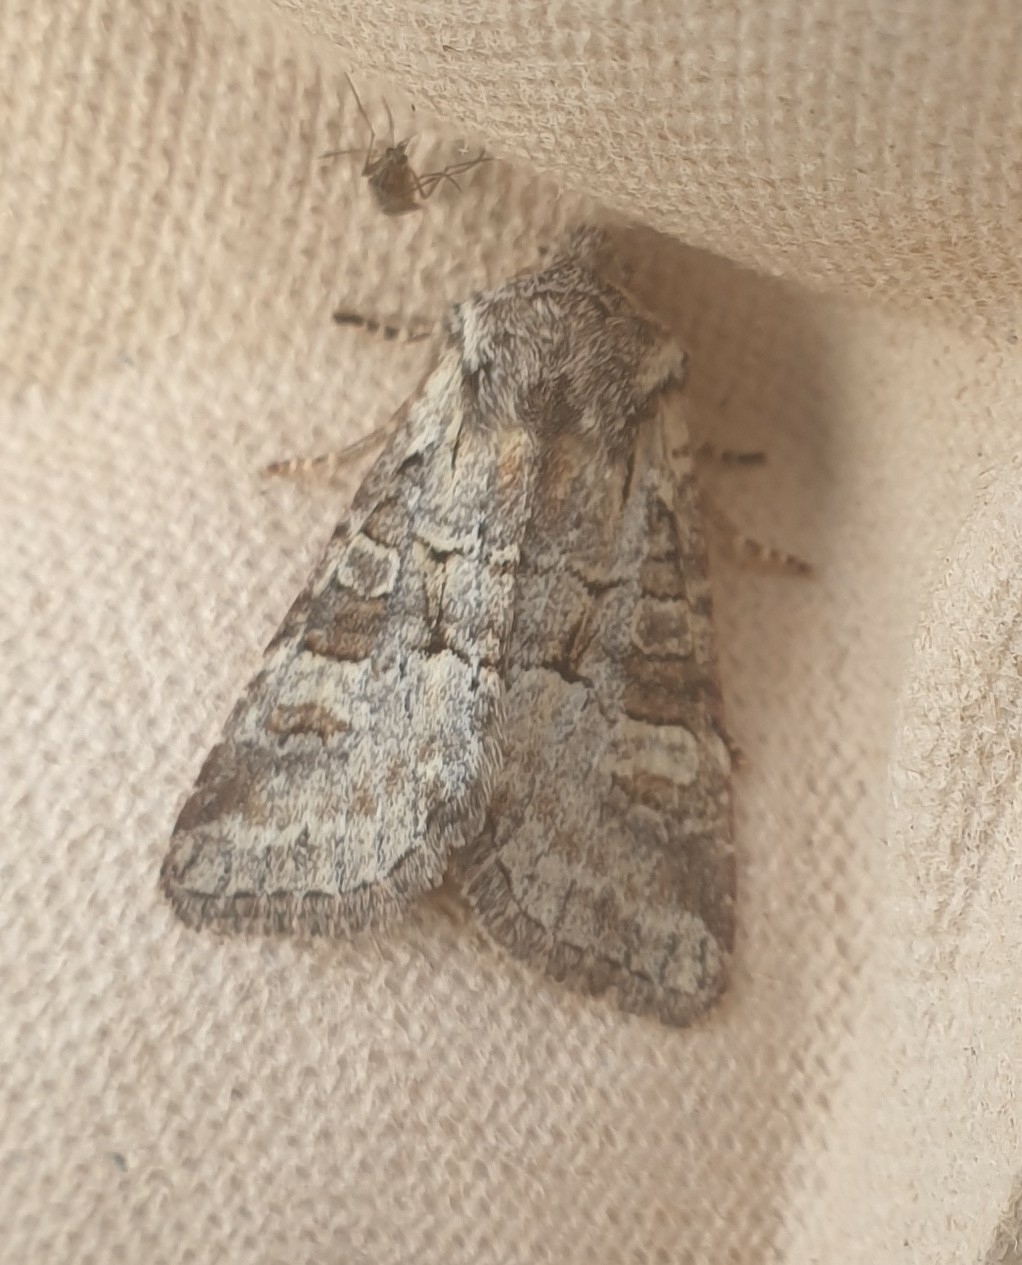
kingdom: Animalia
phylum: Arthropoda
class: Insecta
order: Lepidoptera
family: Noctuidae
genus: Brachylomia
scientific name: Brachylomia viminalis
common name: Minor shoulder-knot
